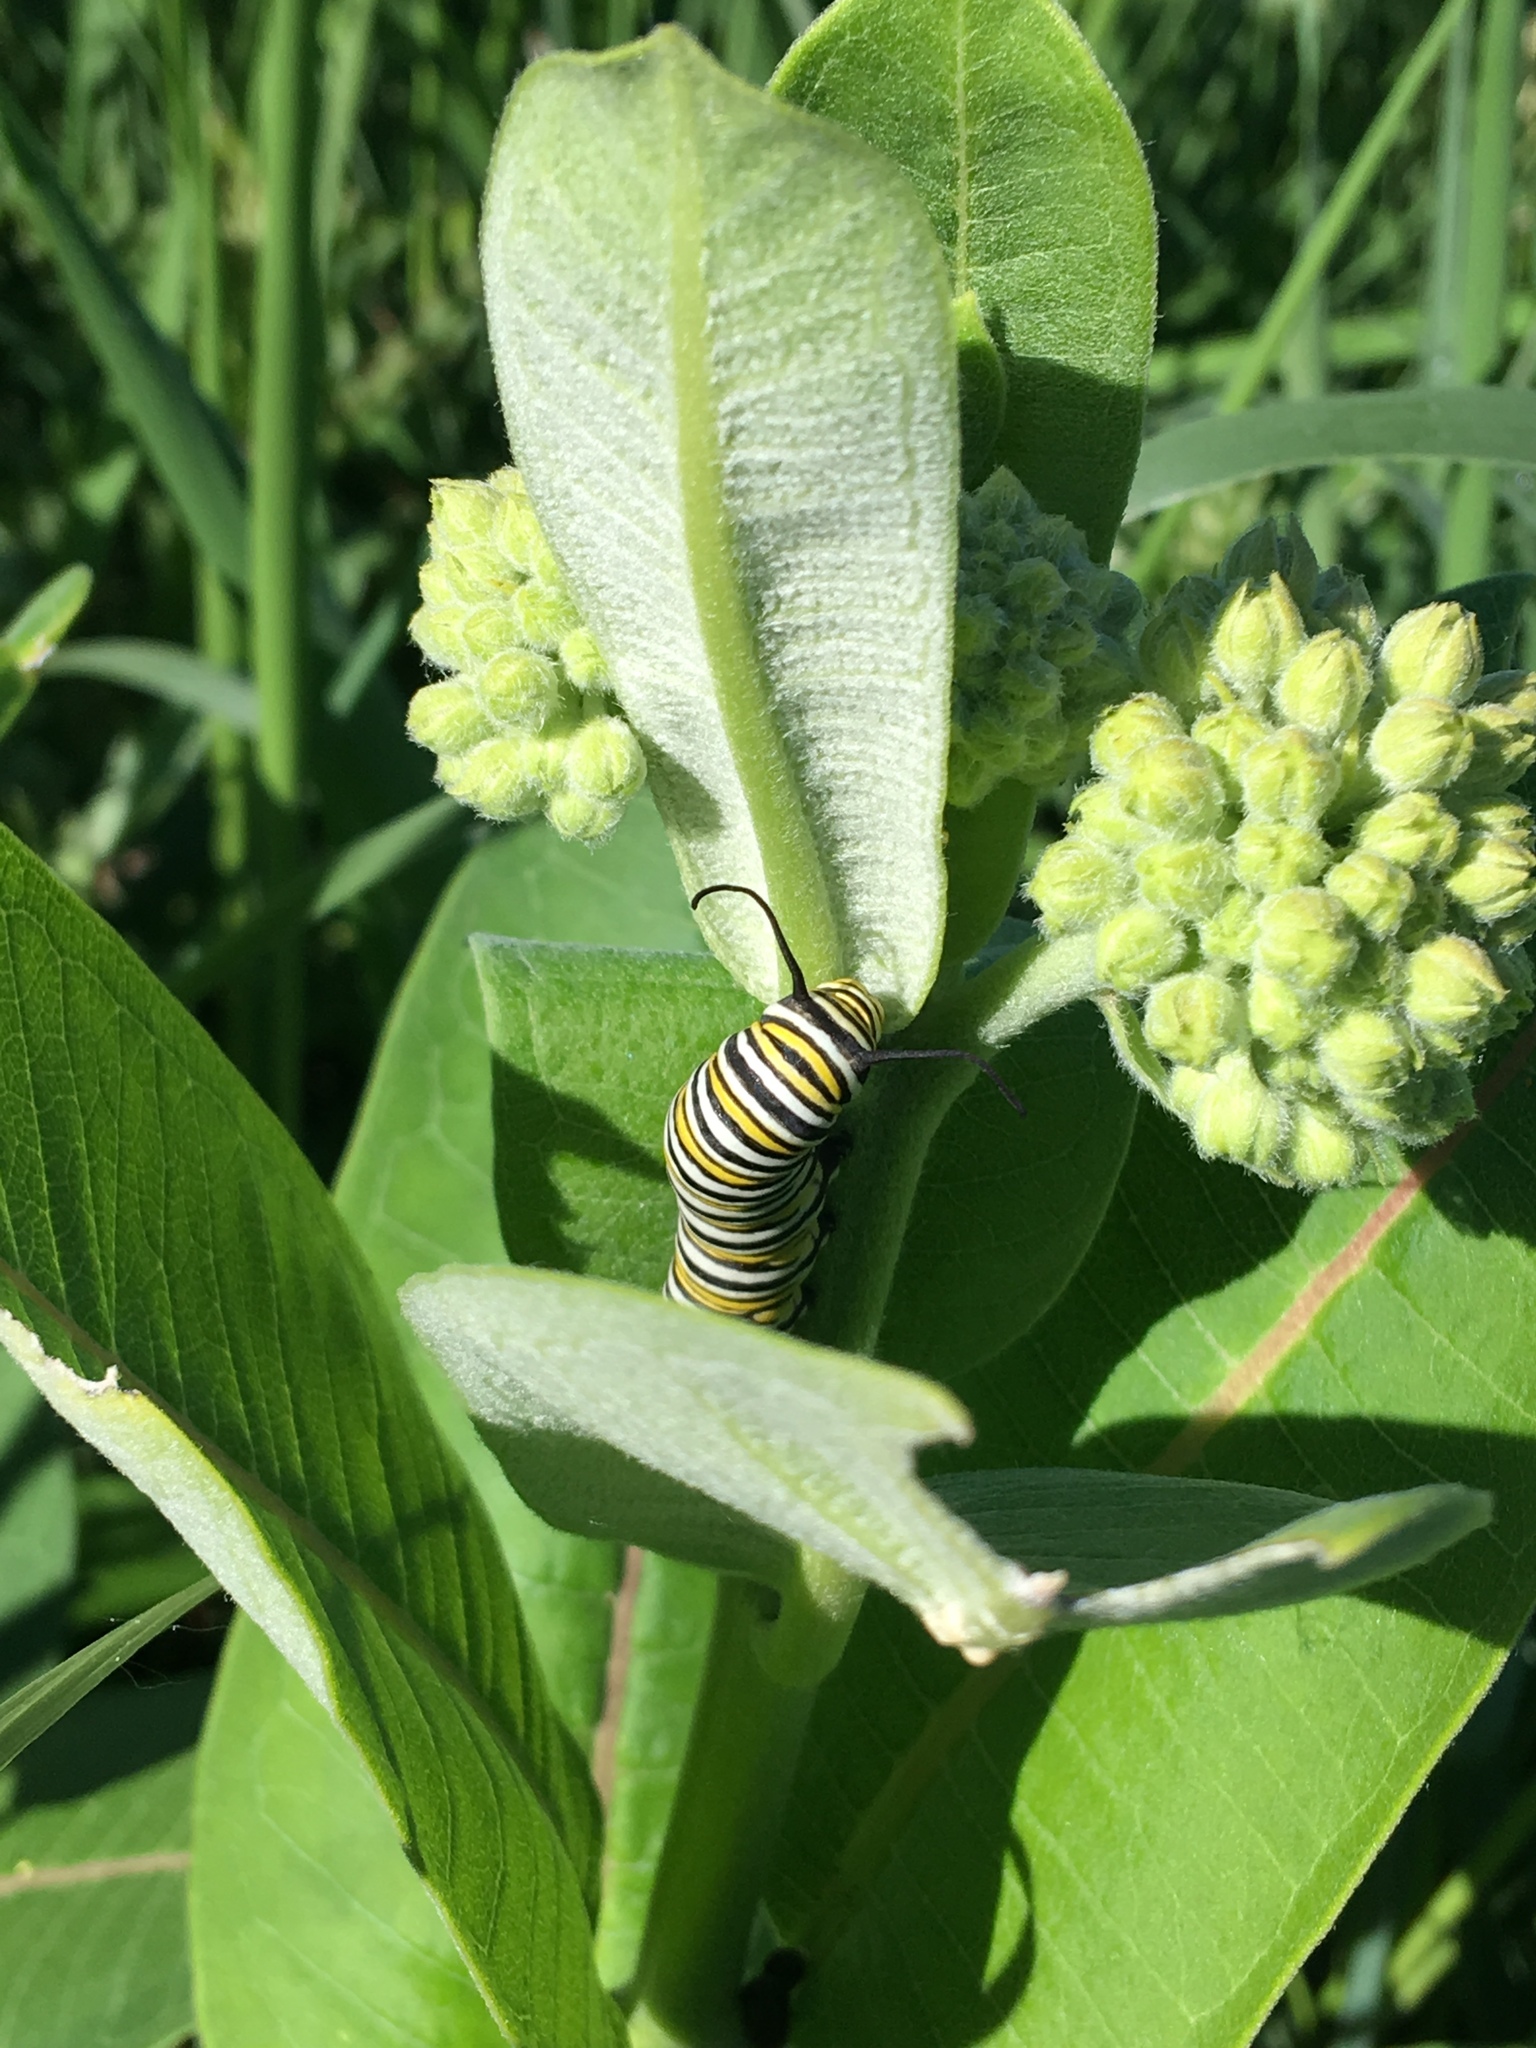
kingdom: Animalia
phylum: Arthropoda
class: Insecta
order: Lepidoptera
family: Nymphalidae
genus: Danaus
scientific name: Danaus plexippus
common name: Monarch
